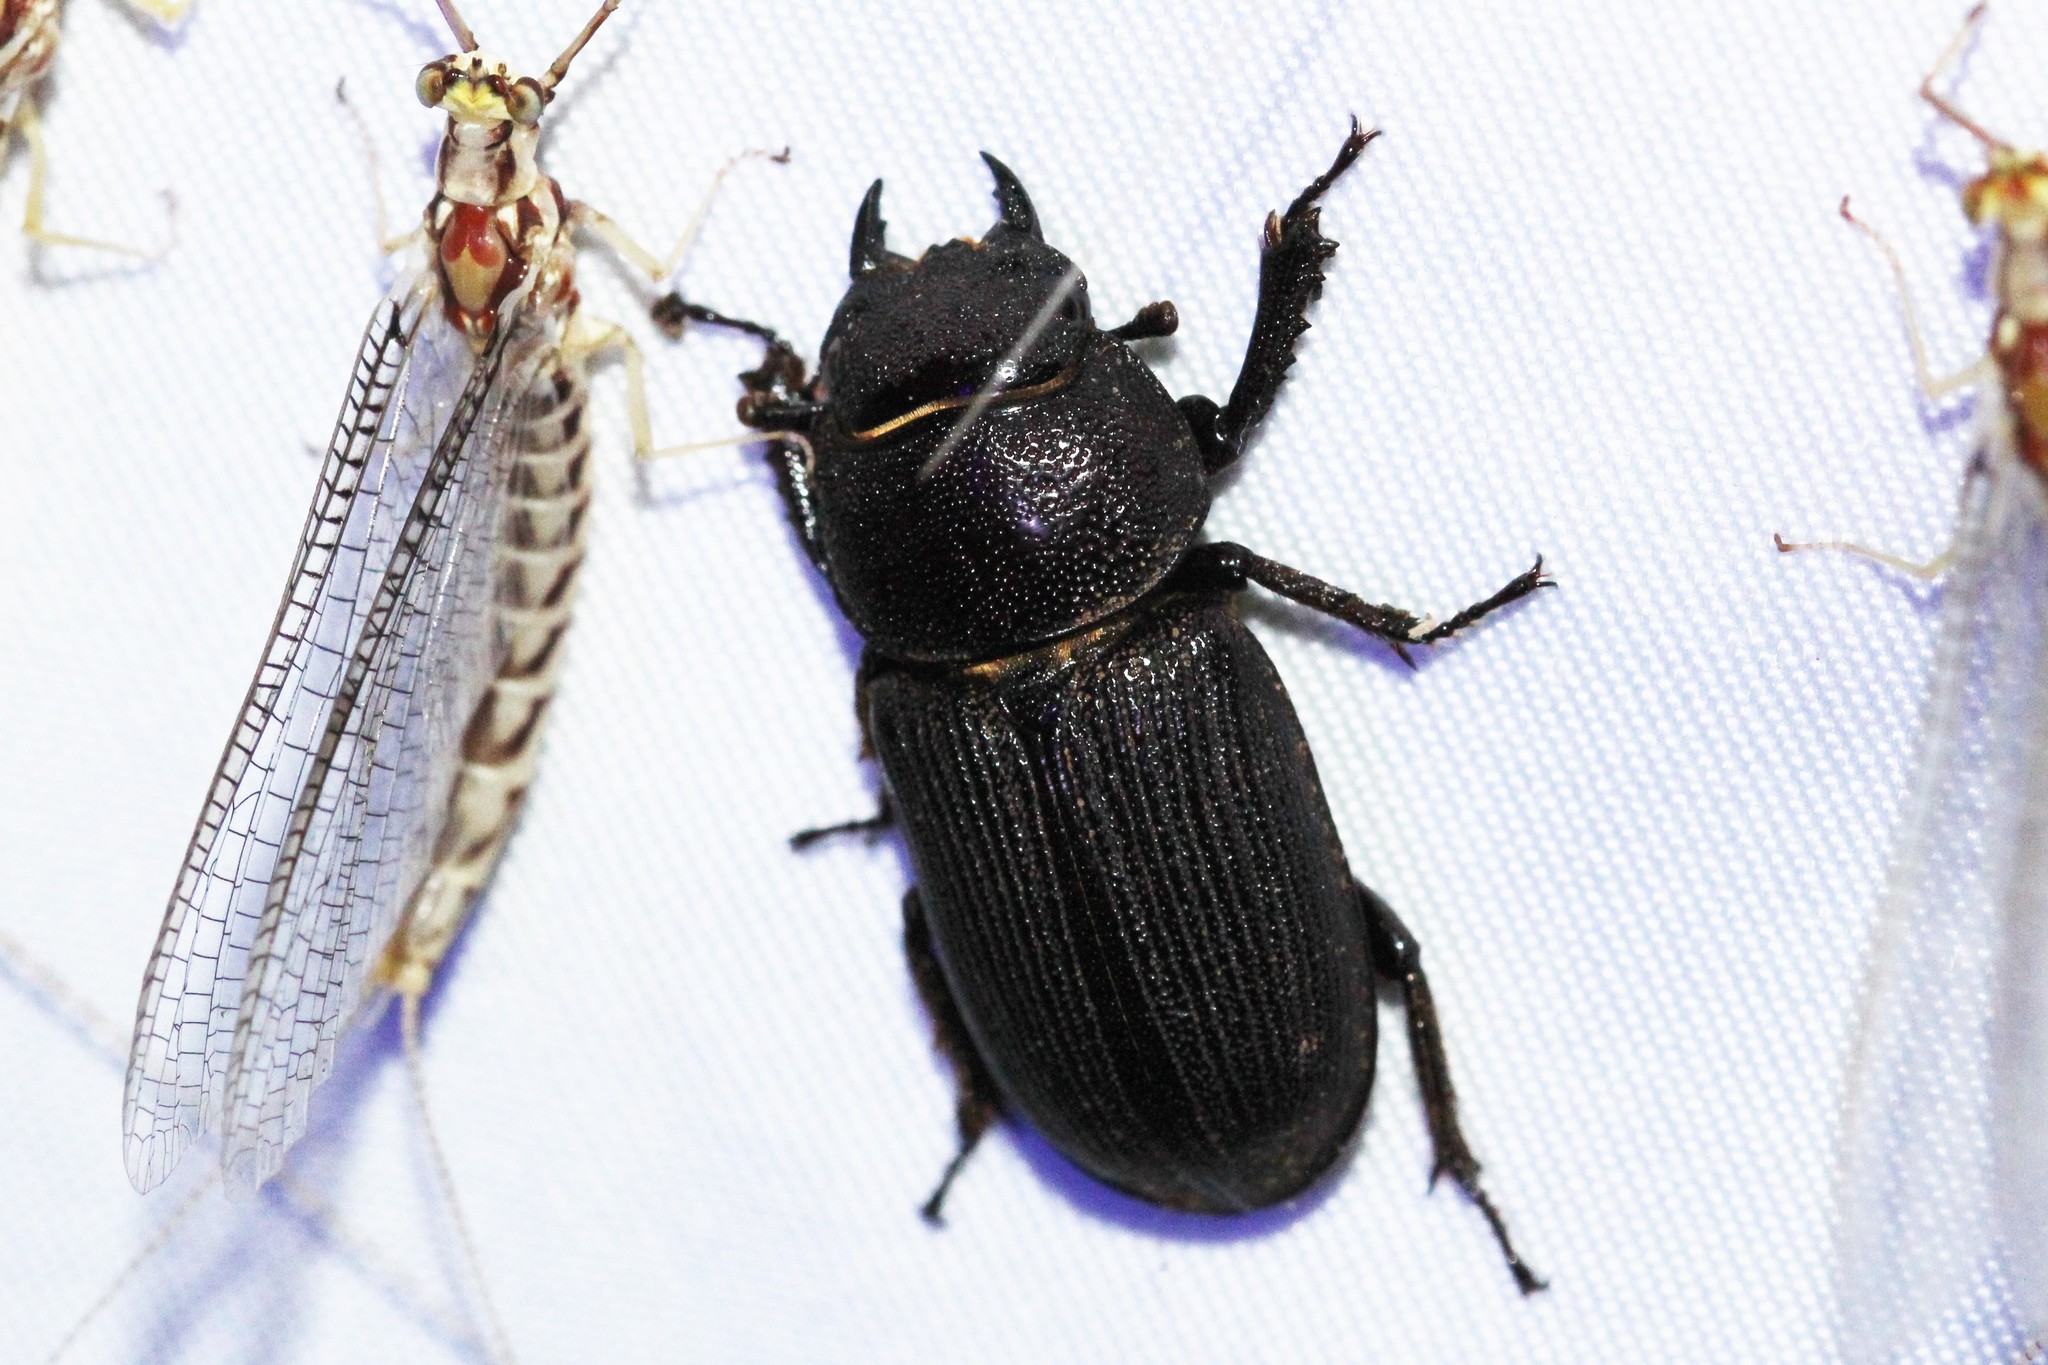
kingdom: Animalia
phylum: Arthropoda
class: Insecta
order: Coleoptera
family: Lucanidae
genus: Dorcus
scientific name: Dorcus parallelus
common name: Antelope beetle
